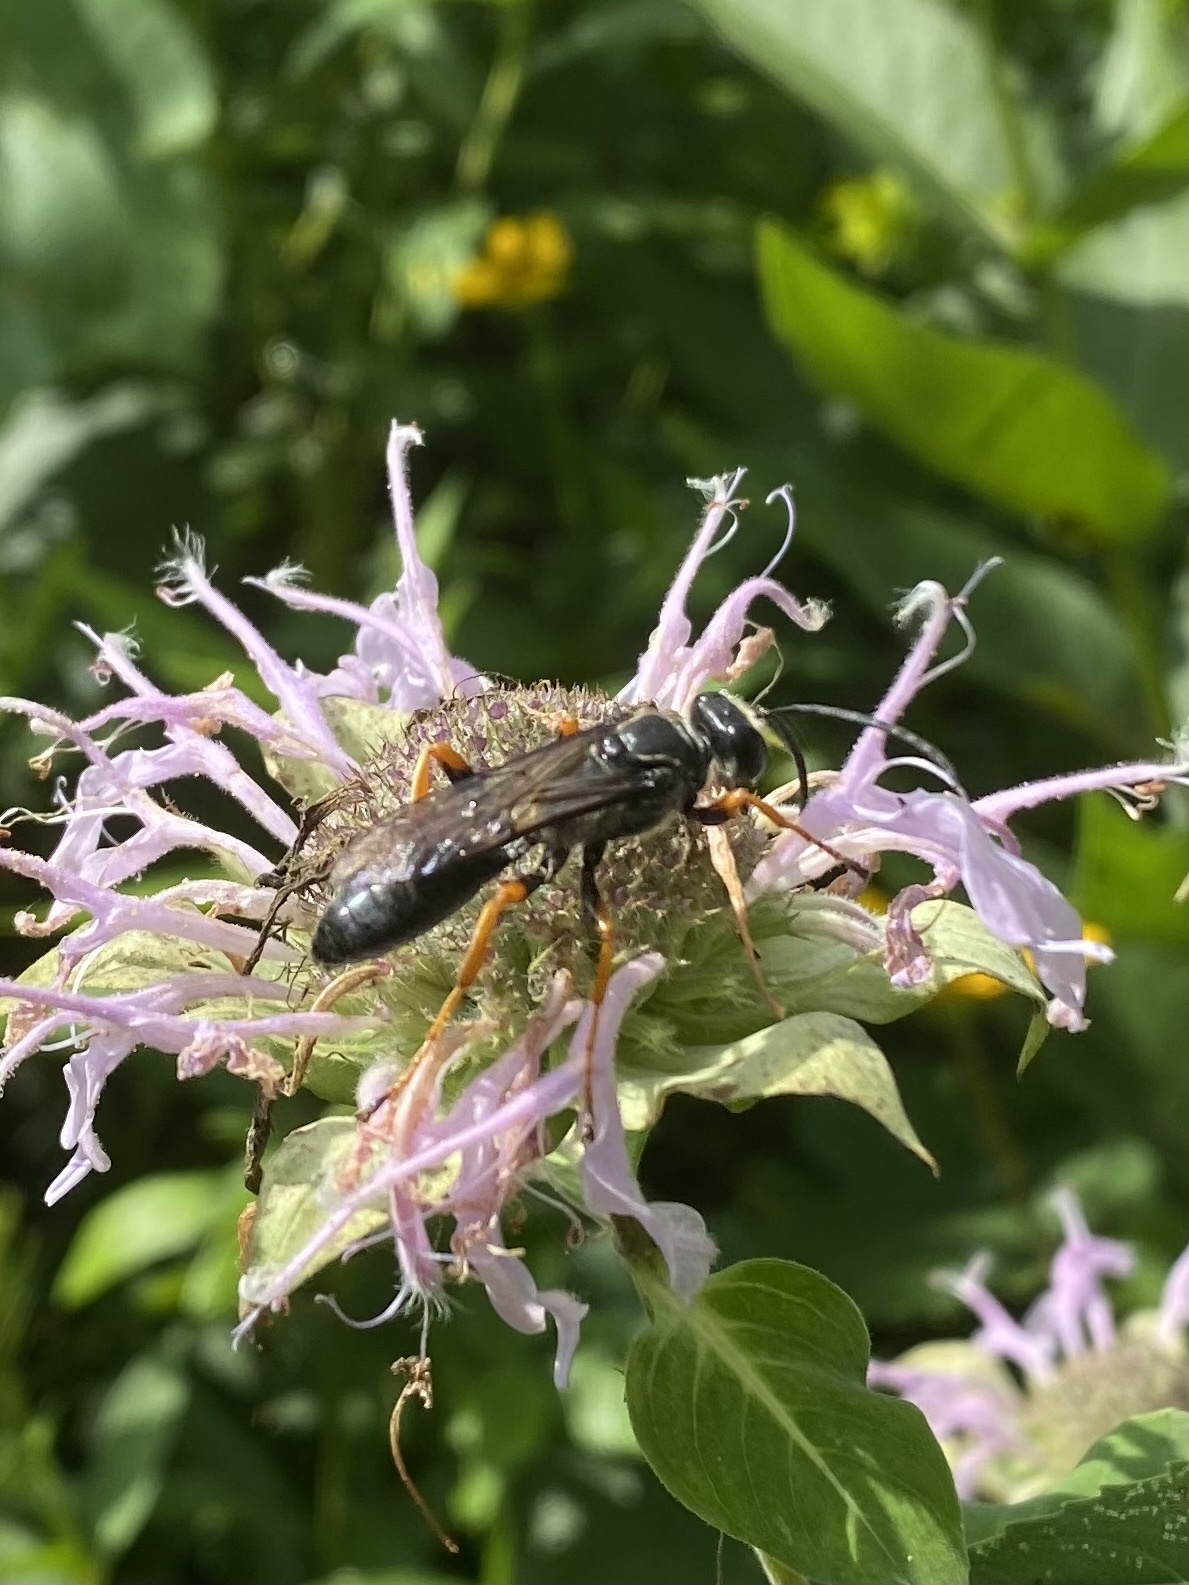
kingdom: Animalia
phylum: Arthropoda
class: Insecta
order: Hymenoptera
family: Sphecidae
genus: Sphex
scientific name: Sphex nudus
